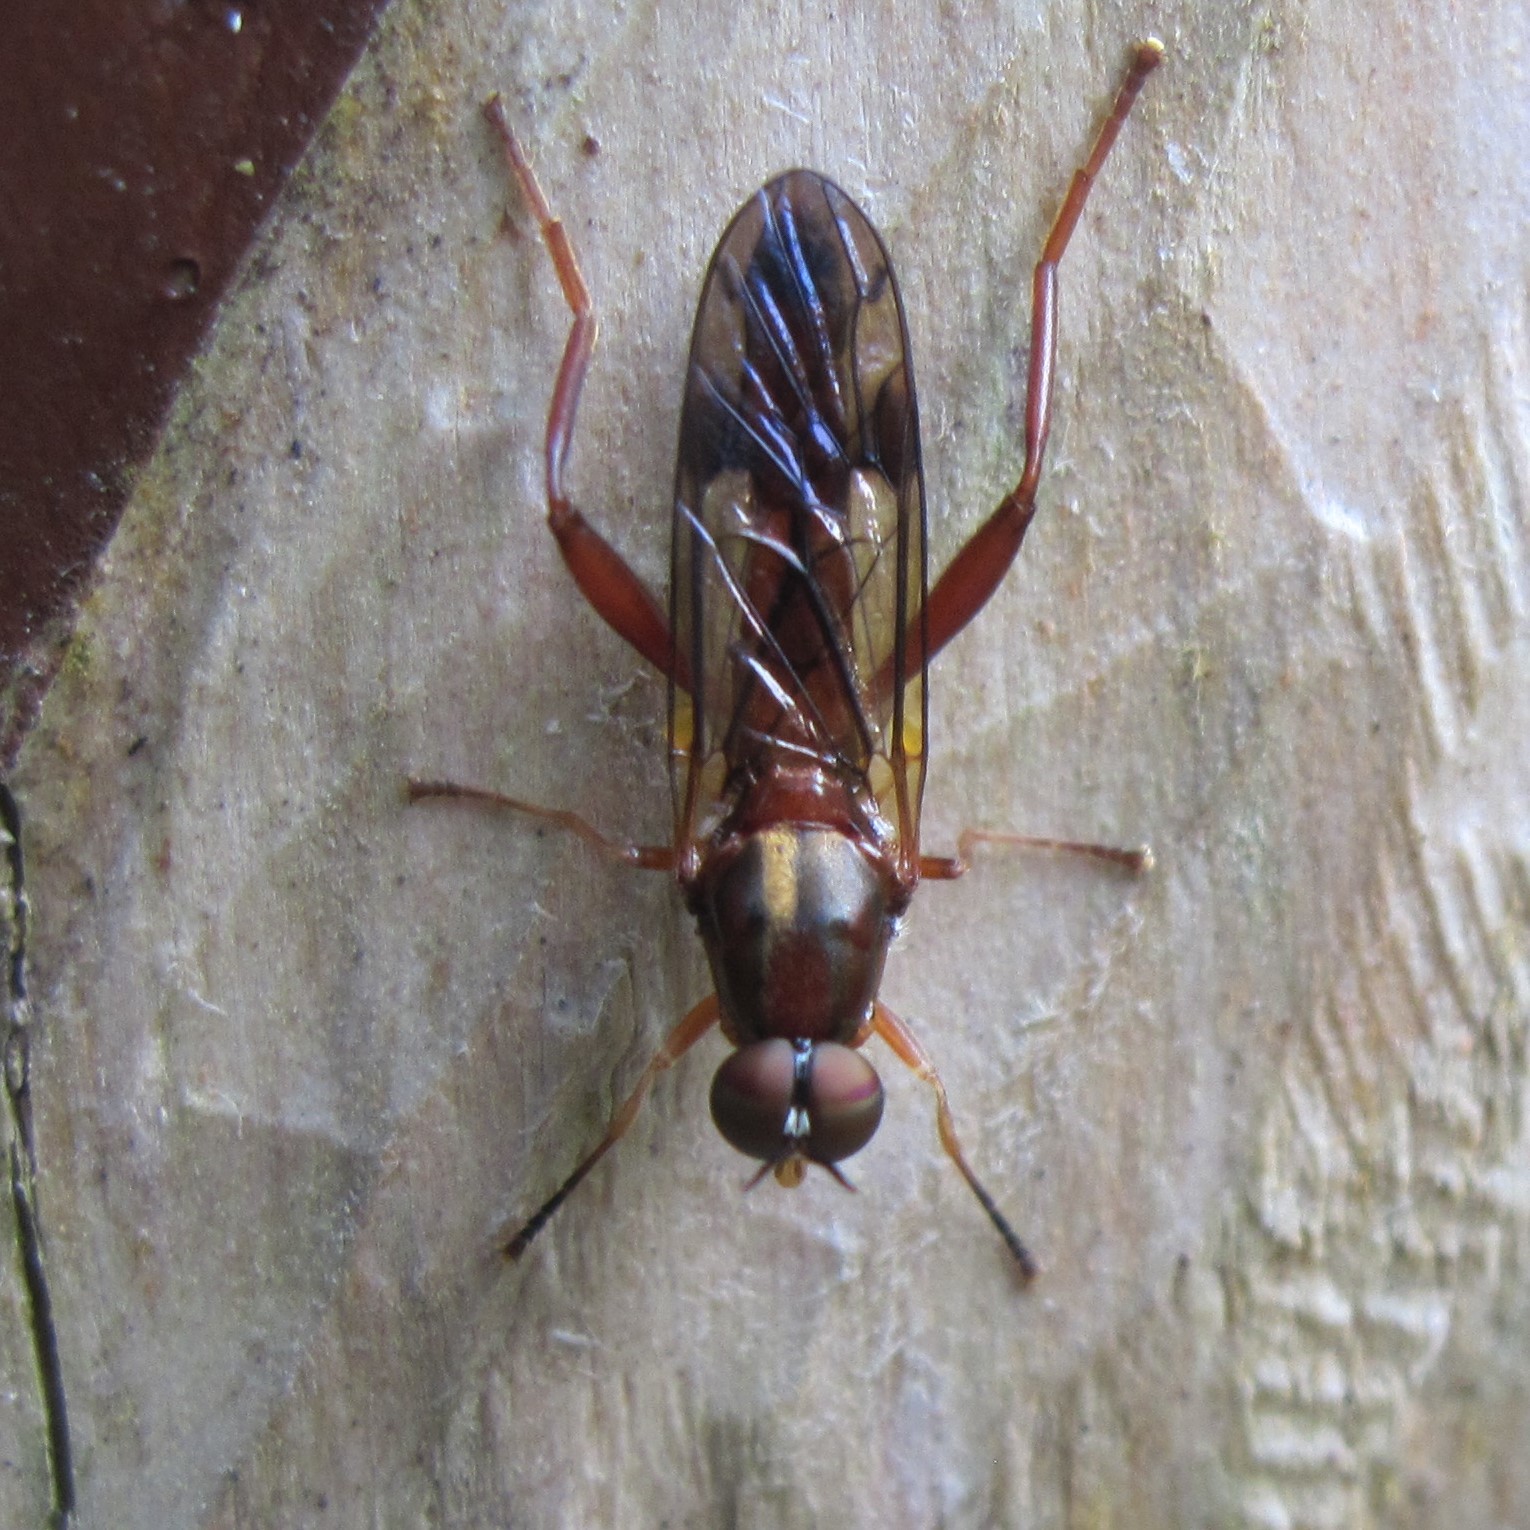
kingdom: Animalia
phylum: Arthropoda
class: Insecta
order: Diptera
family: Stratiomyidae
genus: Benhamyia
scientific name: Benhamyia straznitzkii
